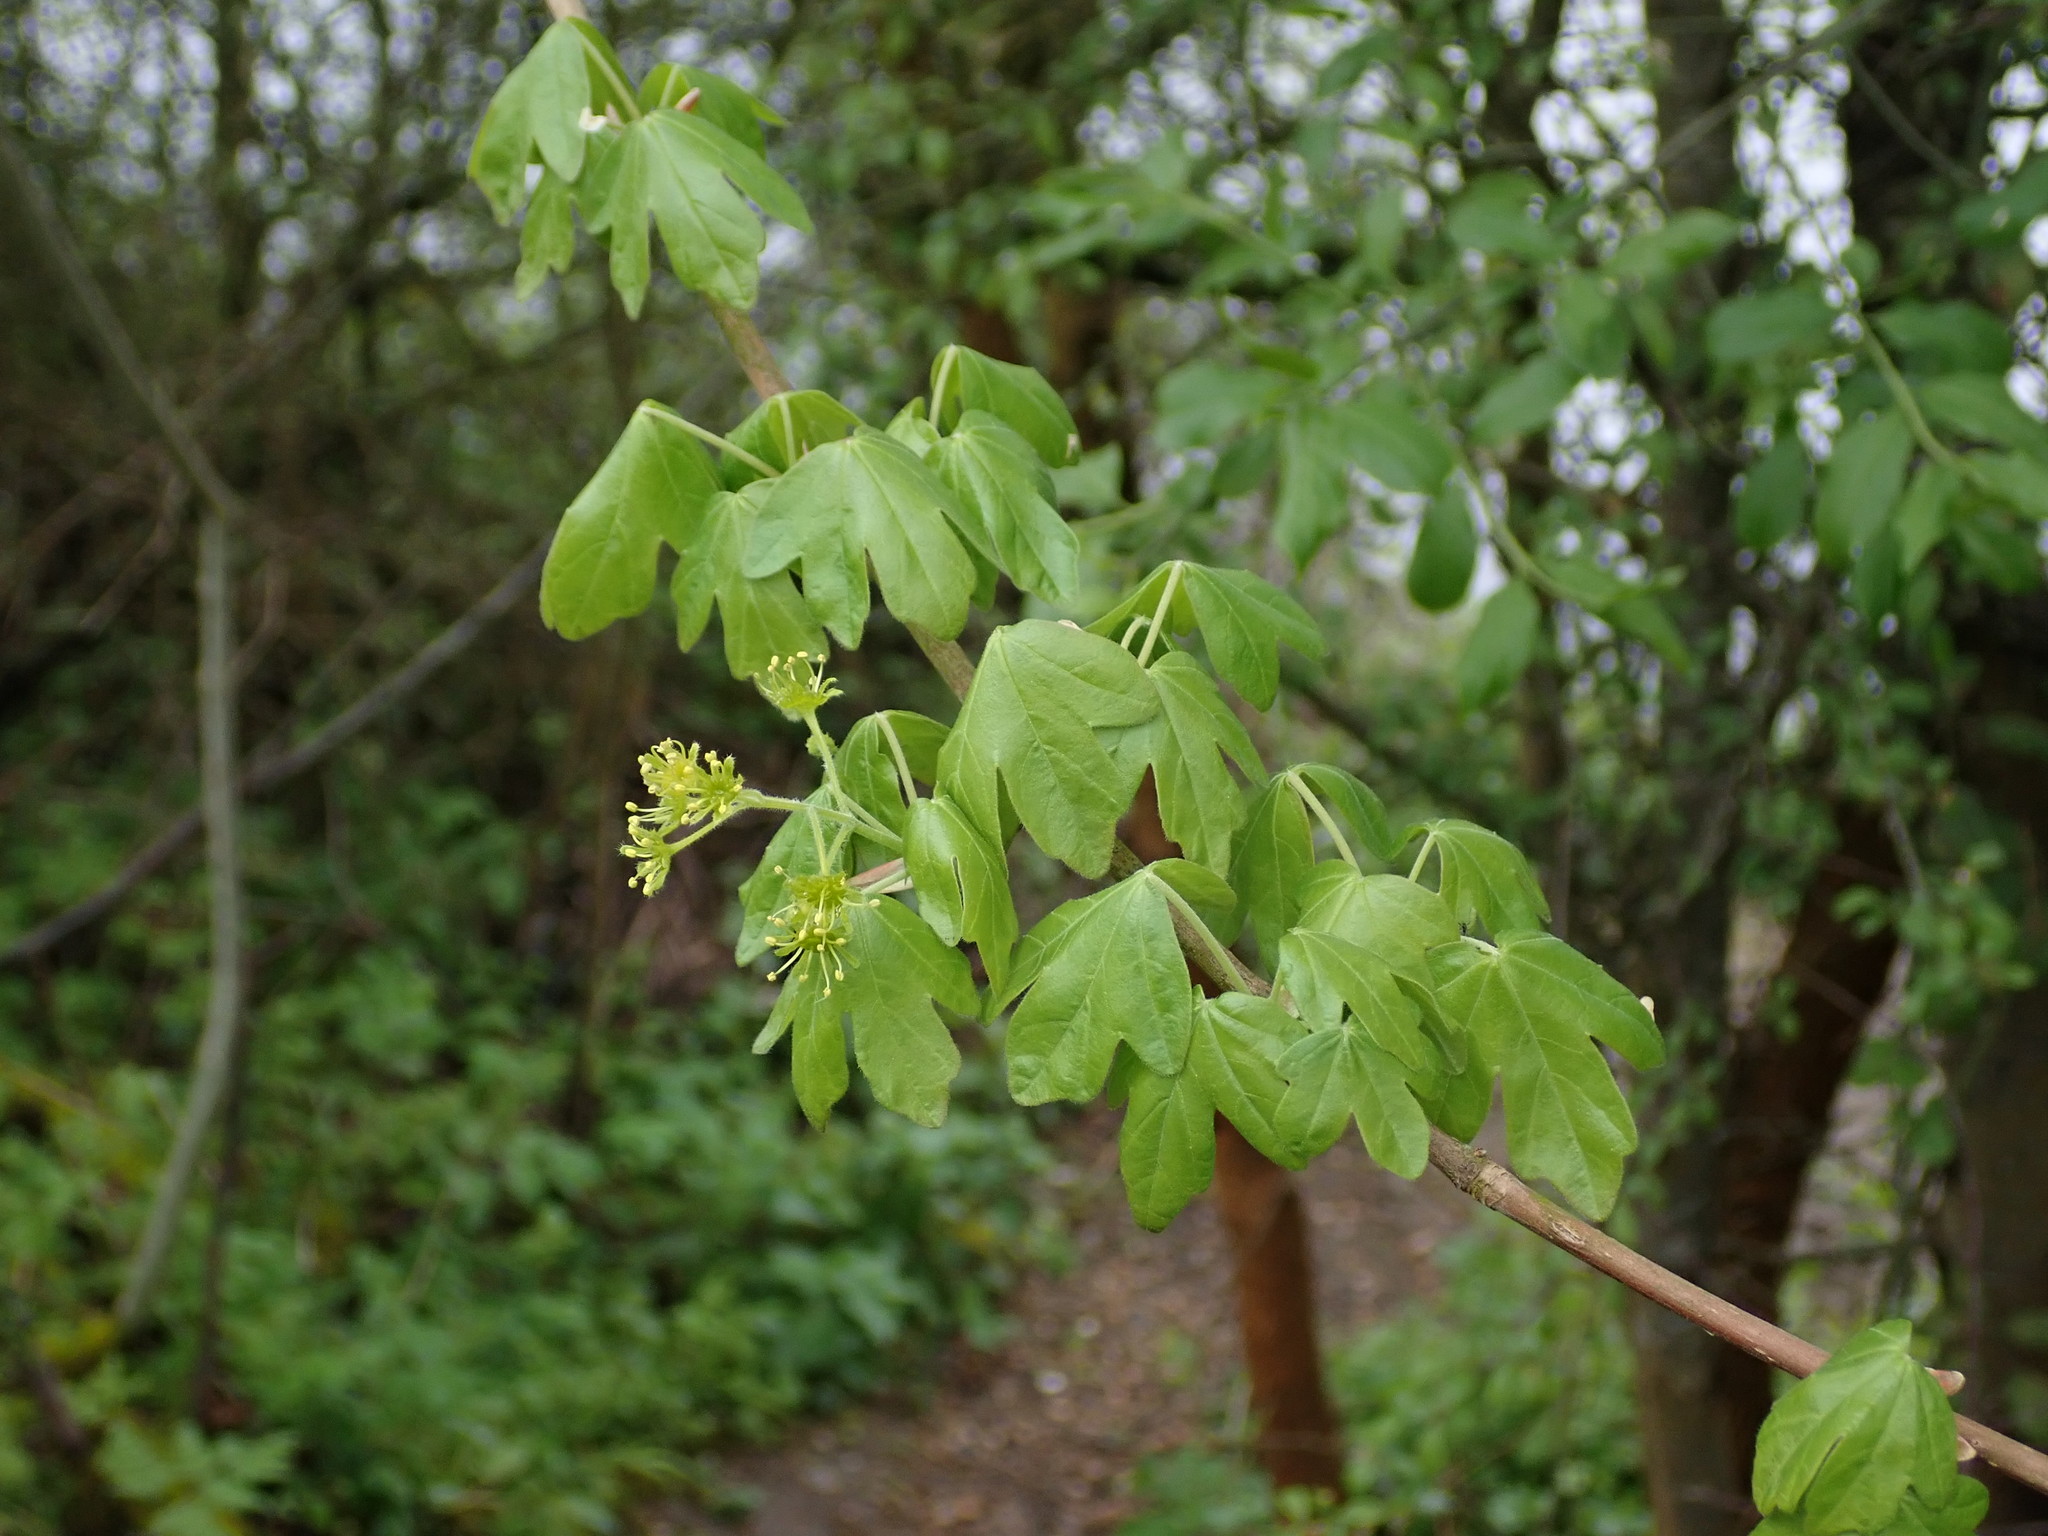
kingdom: Plantae
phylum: Tracheophyta
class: Magnoliopsida
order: Sapindales
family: Sapindaceae
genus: Acer
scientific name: Acer campestre
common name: Field maple
